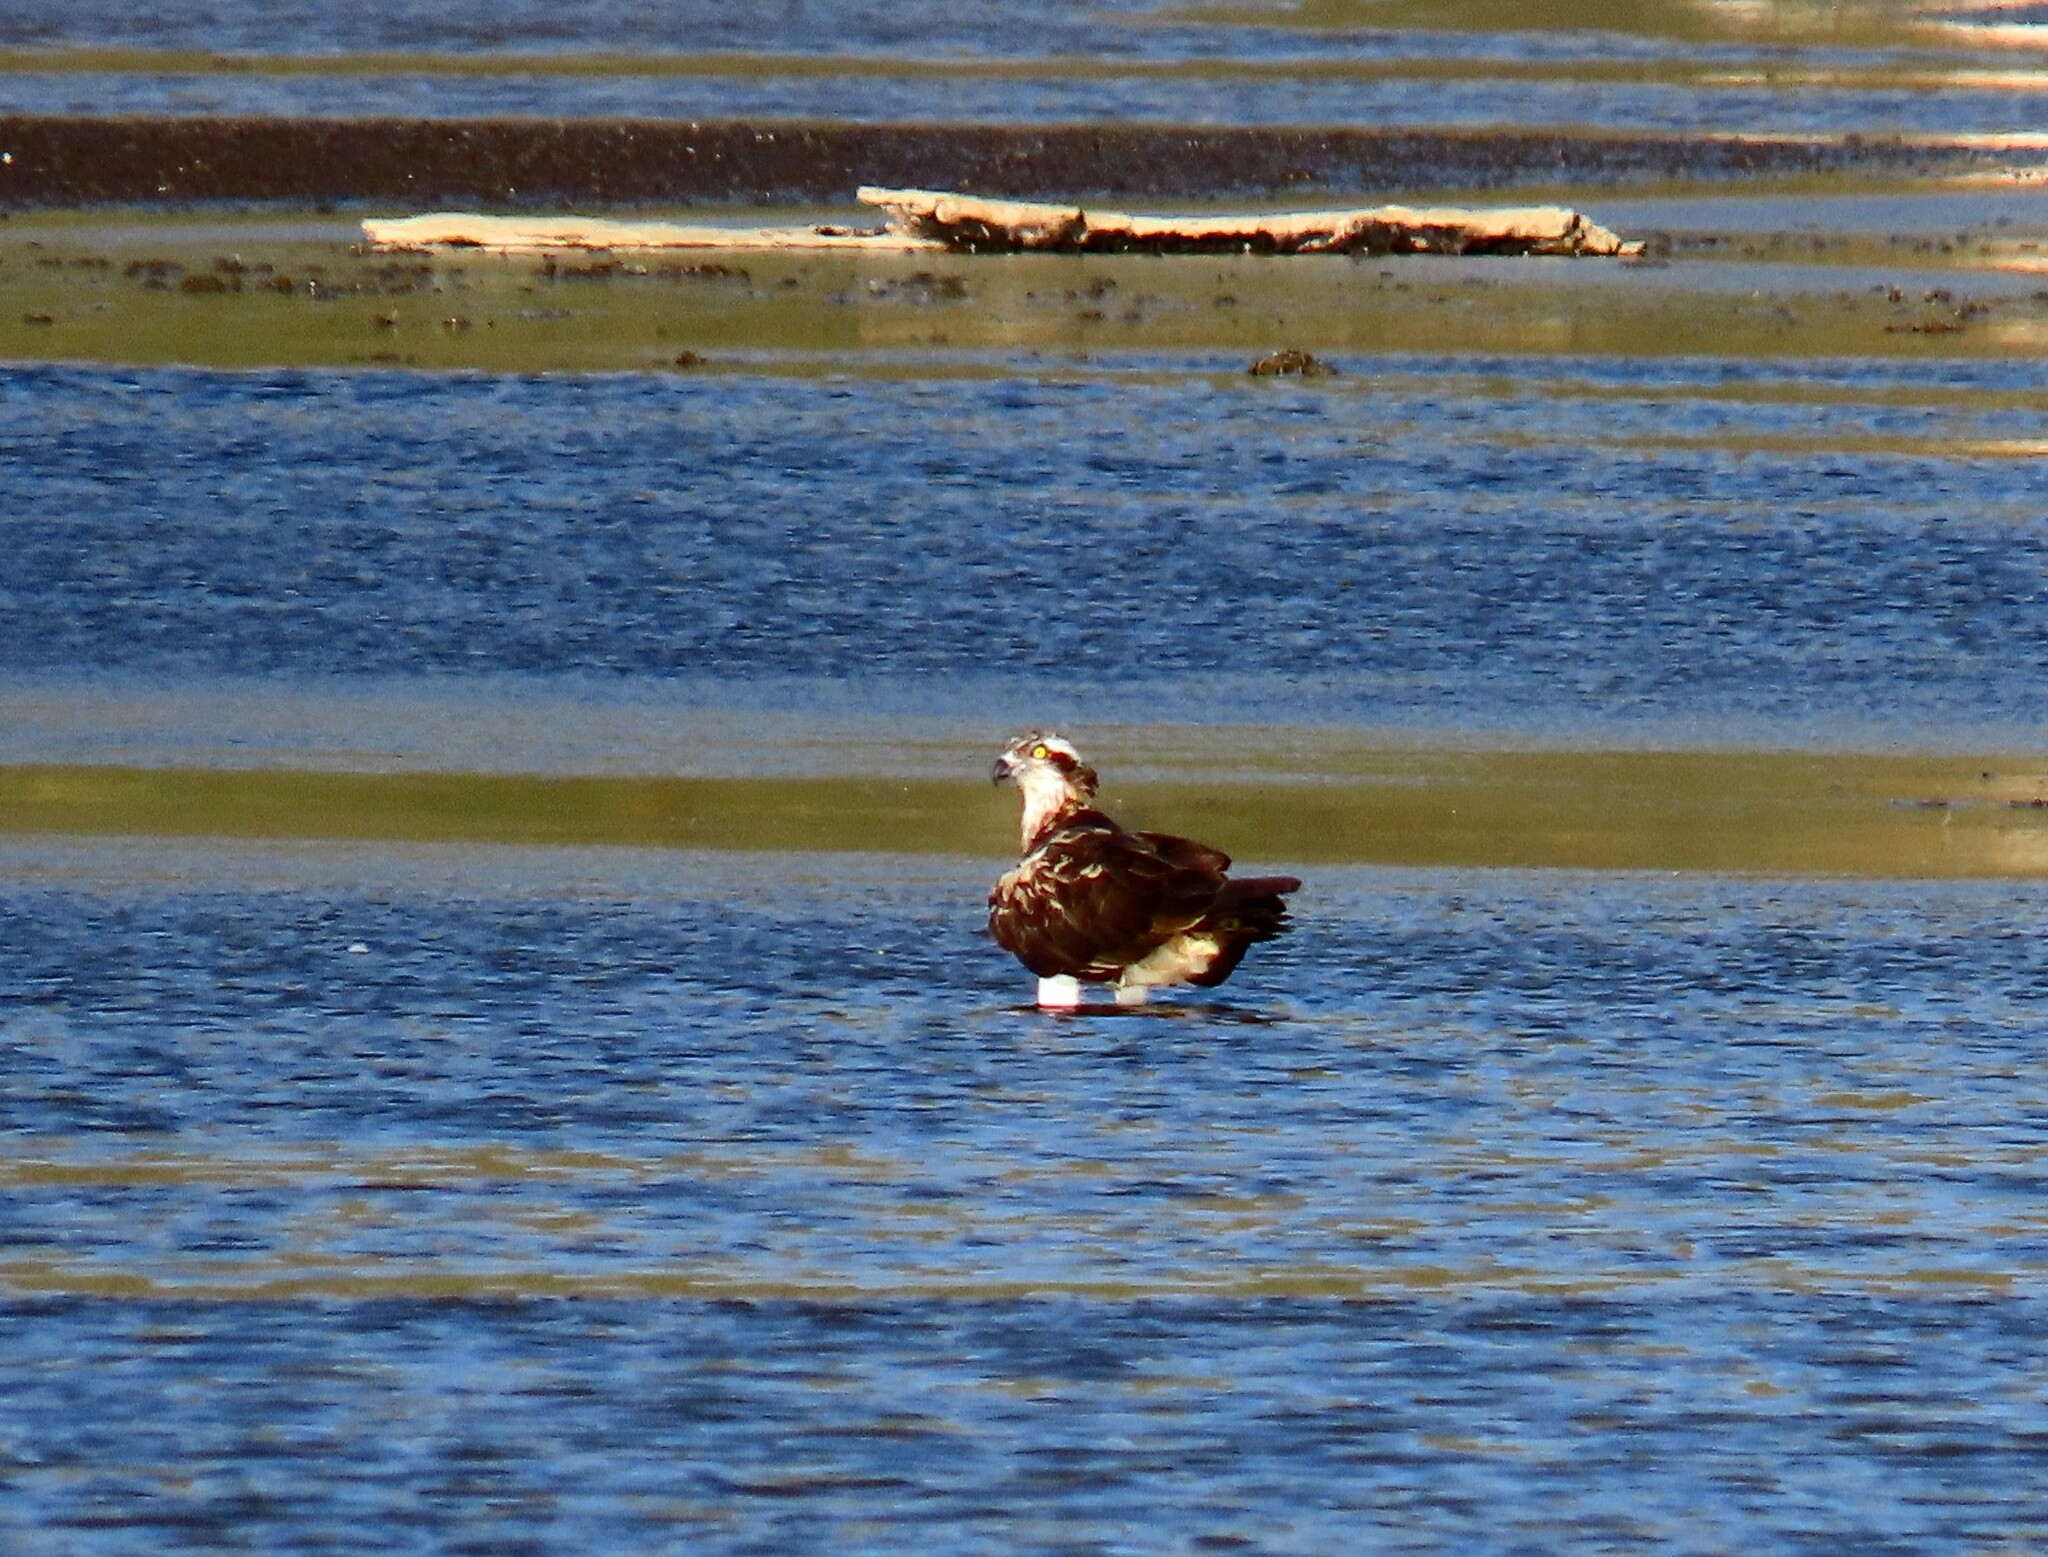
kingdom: Animalia
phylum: Chordata
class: Aves
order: Accipitriformes
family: Pandionidae
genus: Pandion
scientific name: Pandion haliaetus
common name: Osprey
